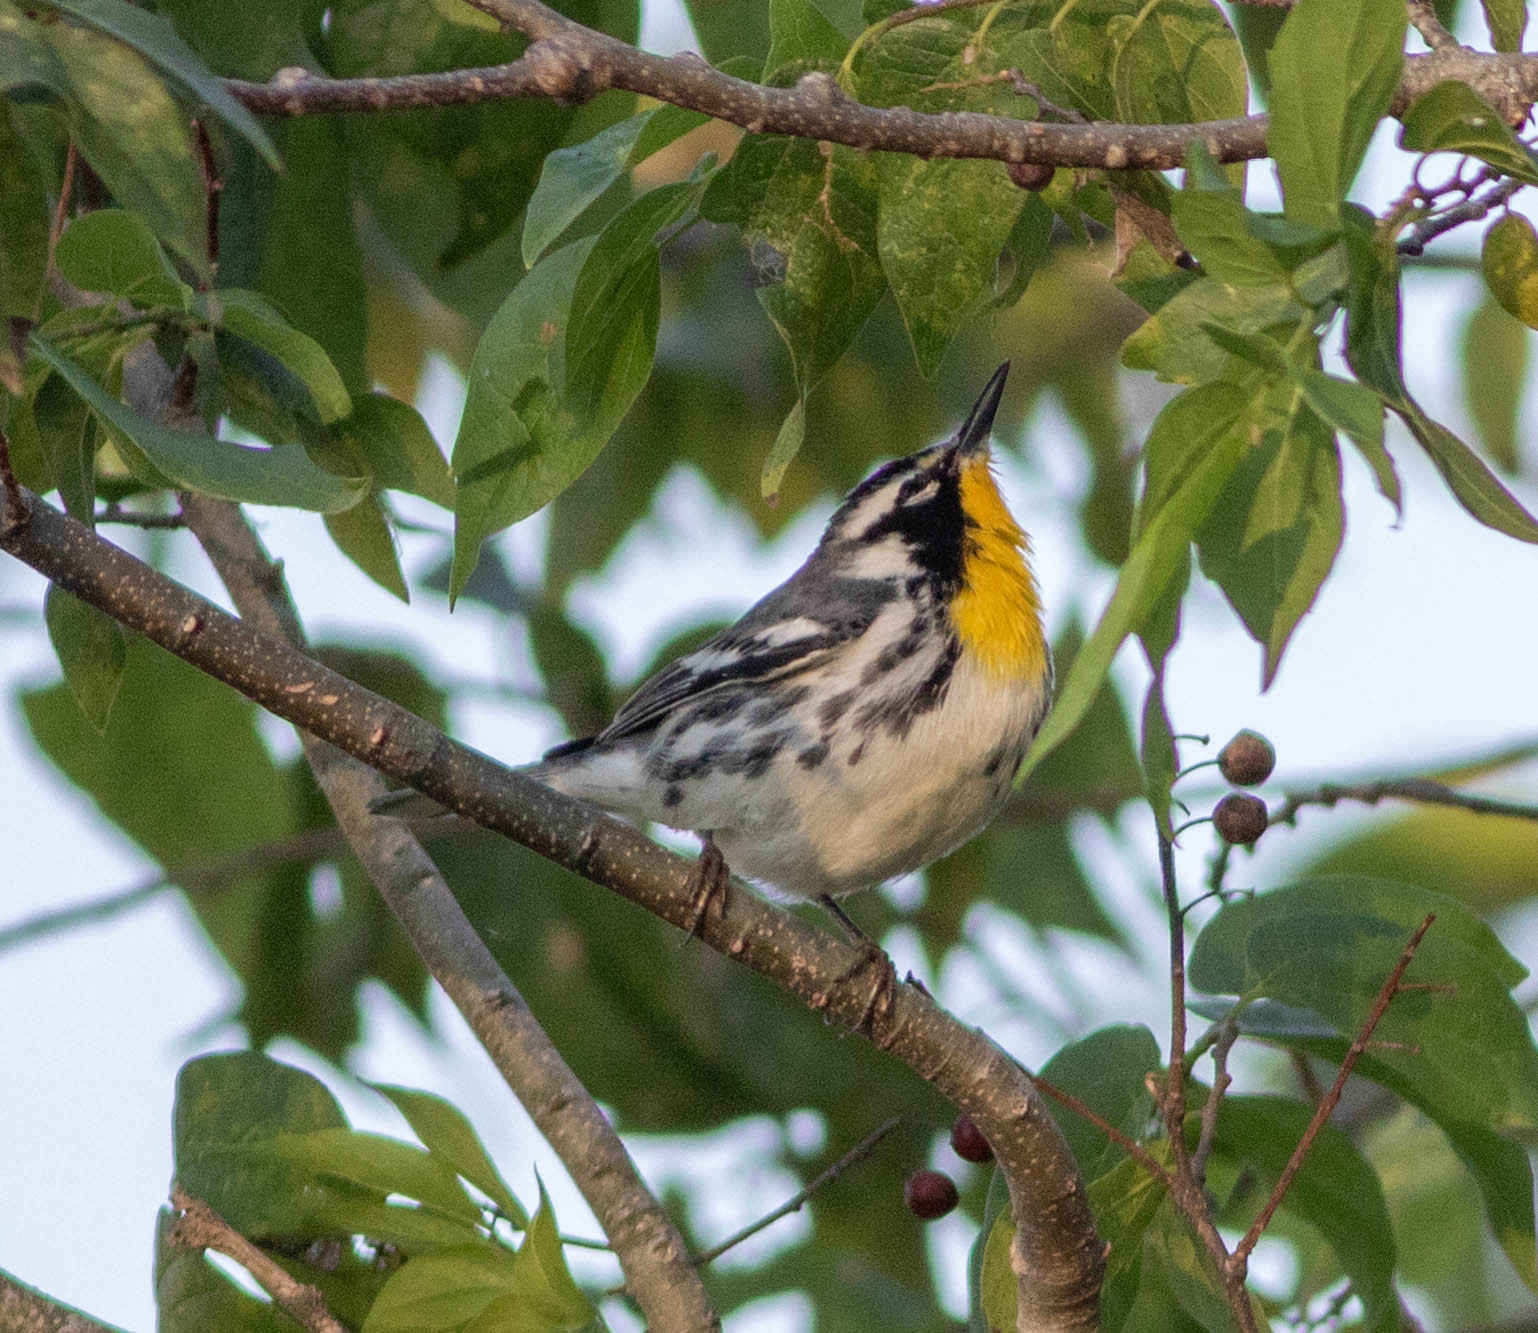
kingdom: Animalia
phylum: Chordata
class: Aves
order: Passeriformes
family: Parulidae
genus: Setophaga
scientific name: Setophaga dominica
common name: Yellow-throated warbler
